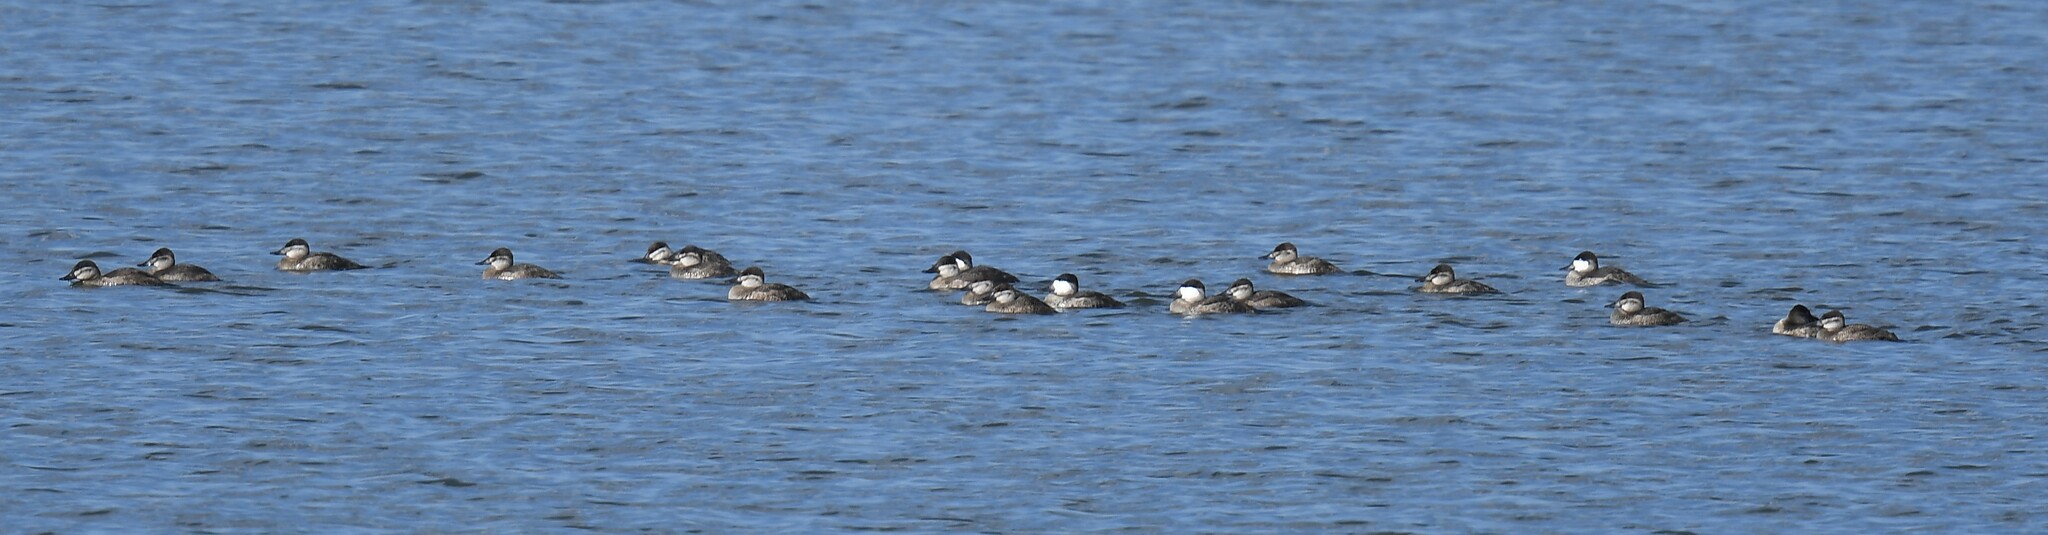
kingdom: Animalia
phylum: Chordata
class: Aves
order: Anseriformes
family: Anatidae
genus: Oxyura
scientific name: Oxyura jamaicensis
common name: Ruddy duck
